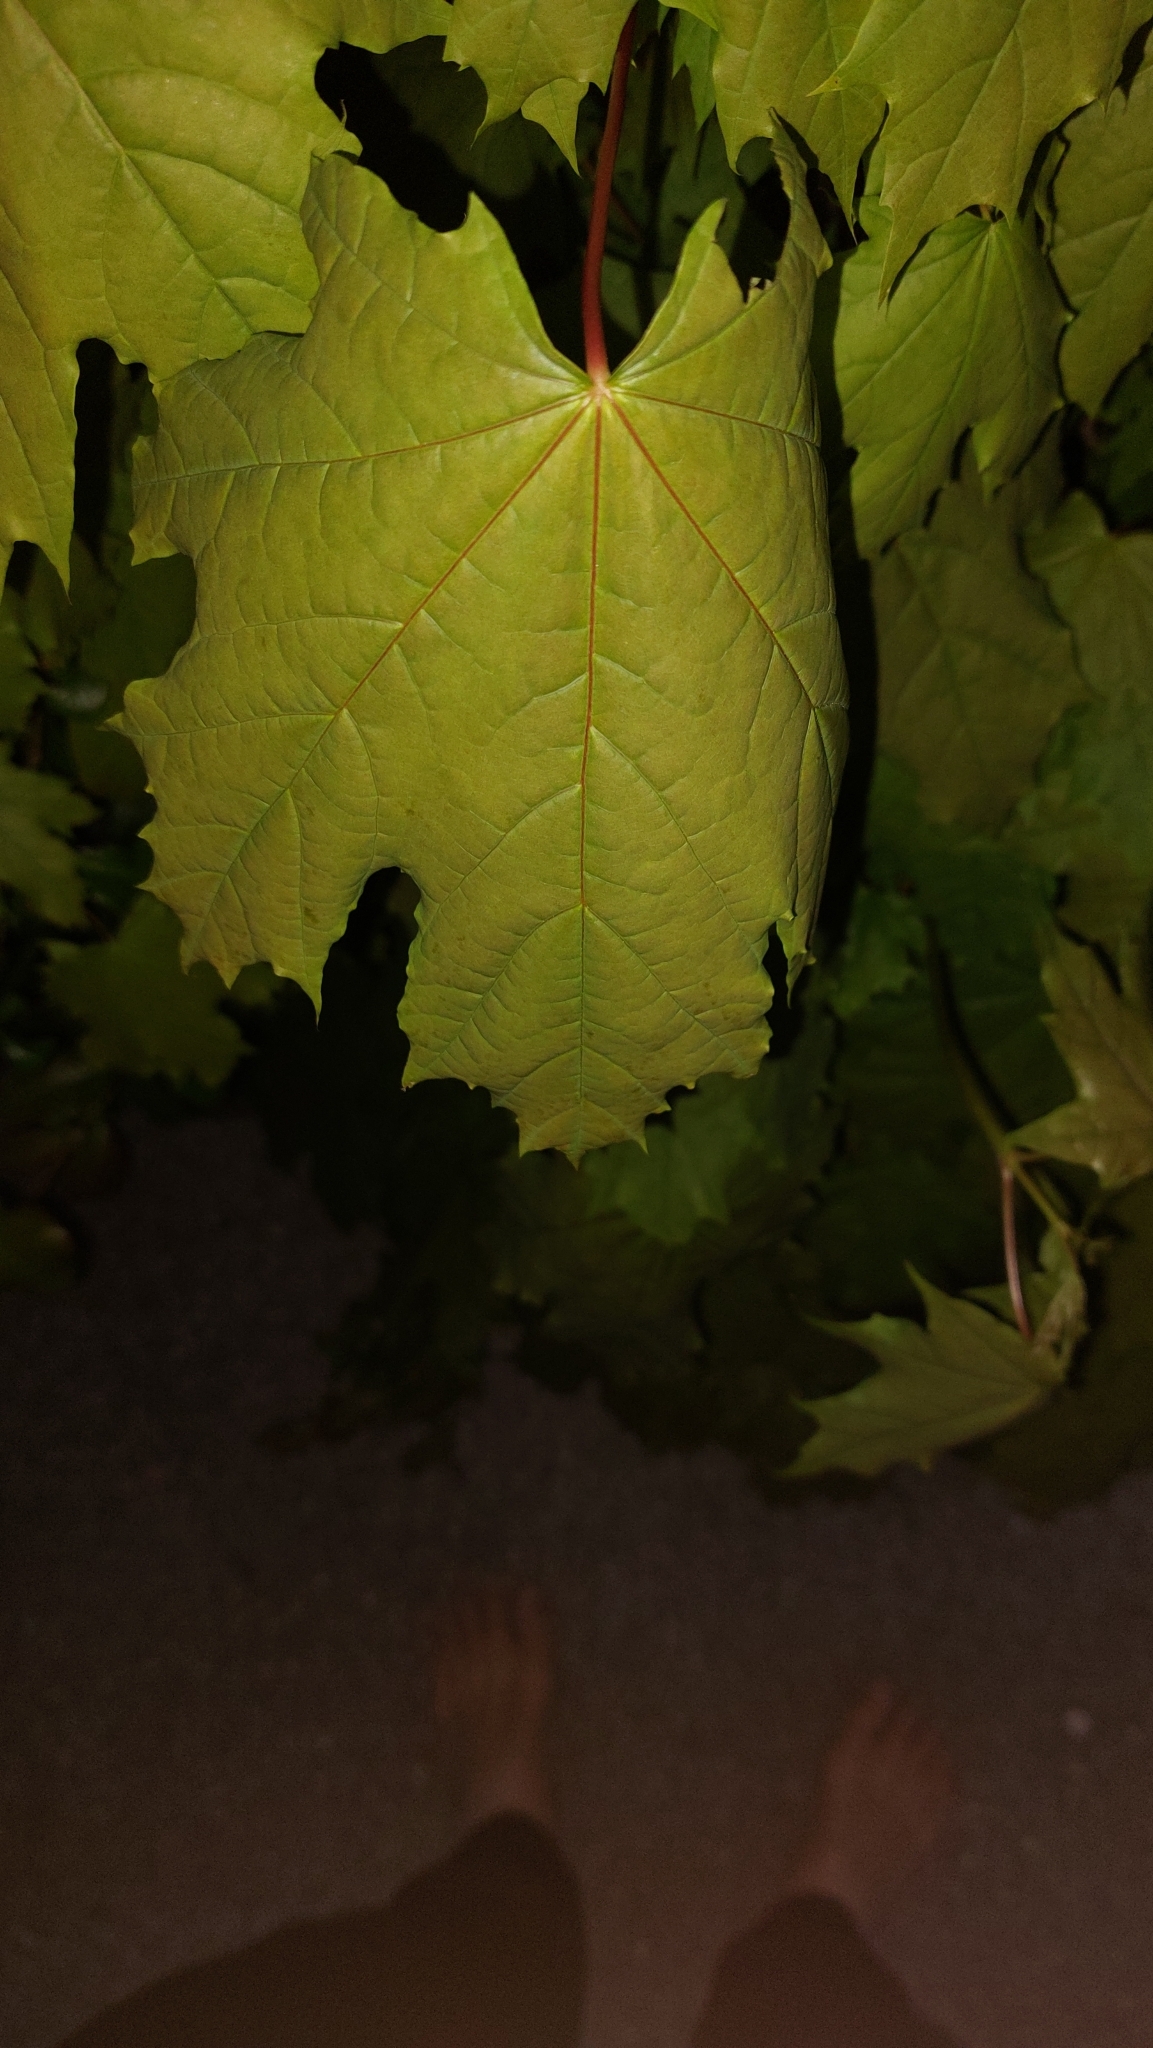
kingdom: Plantae
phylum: Tracheophyta
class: Magnoliopsida
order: Sapindales
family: Sapindaceae
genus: Acer
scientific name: Acer platanoides
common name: Norway maple
